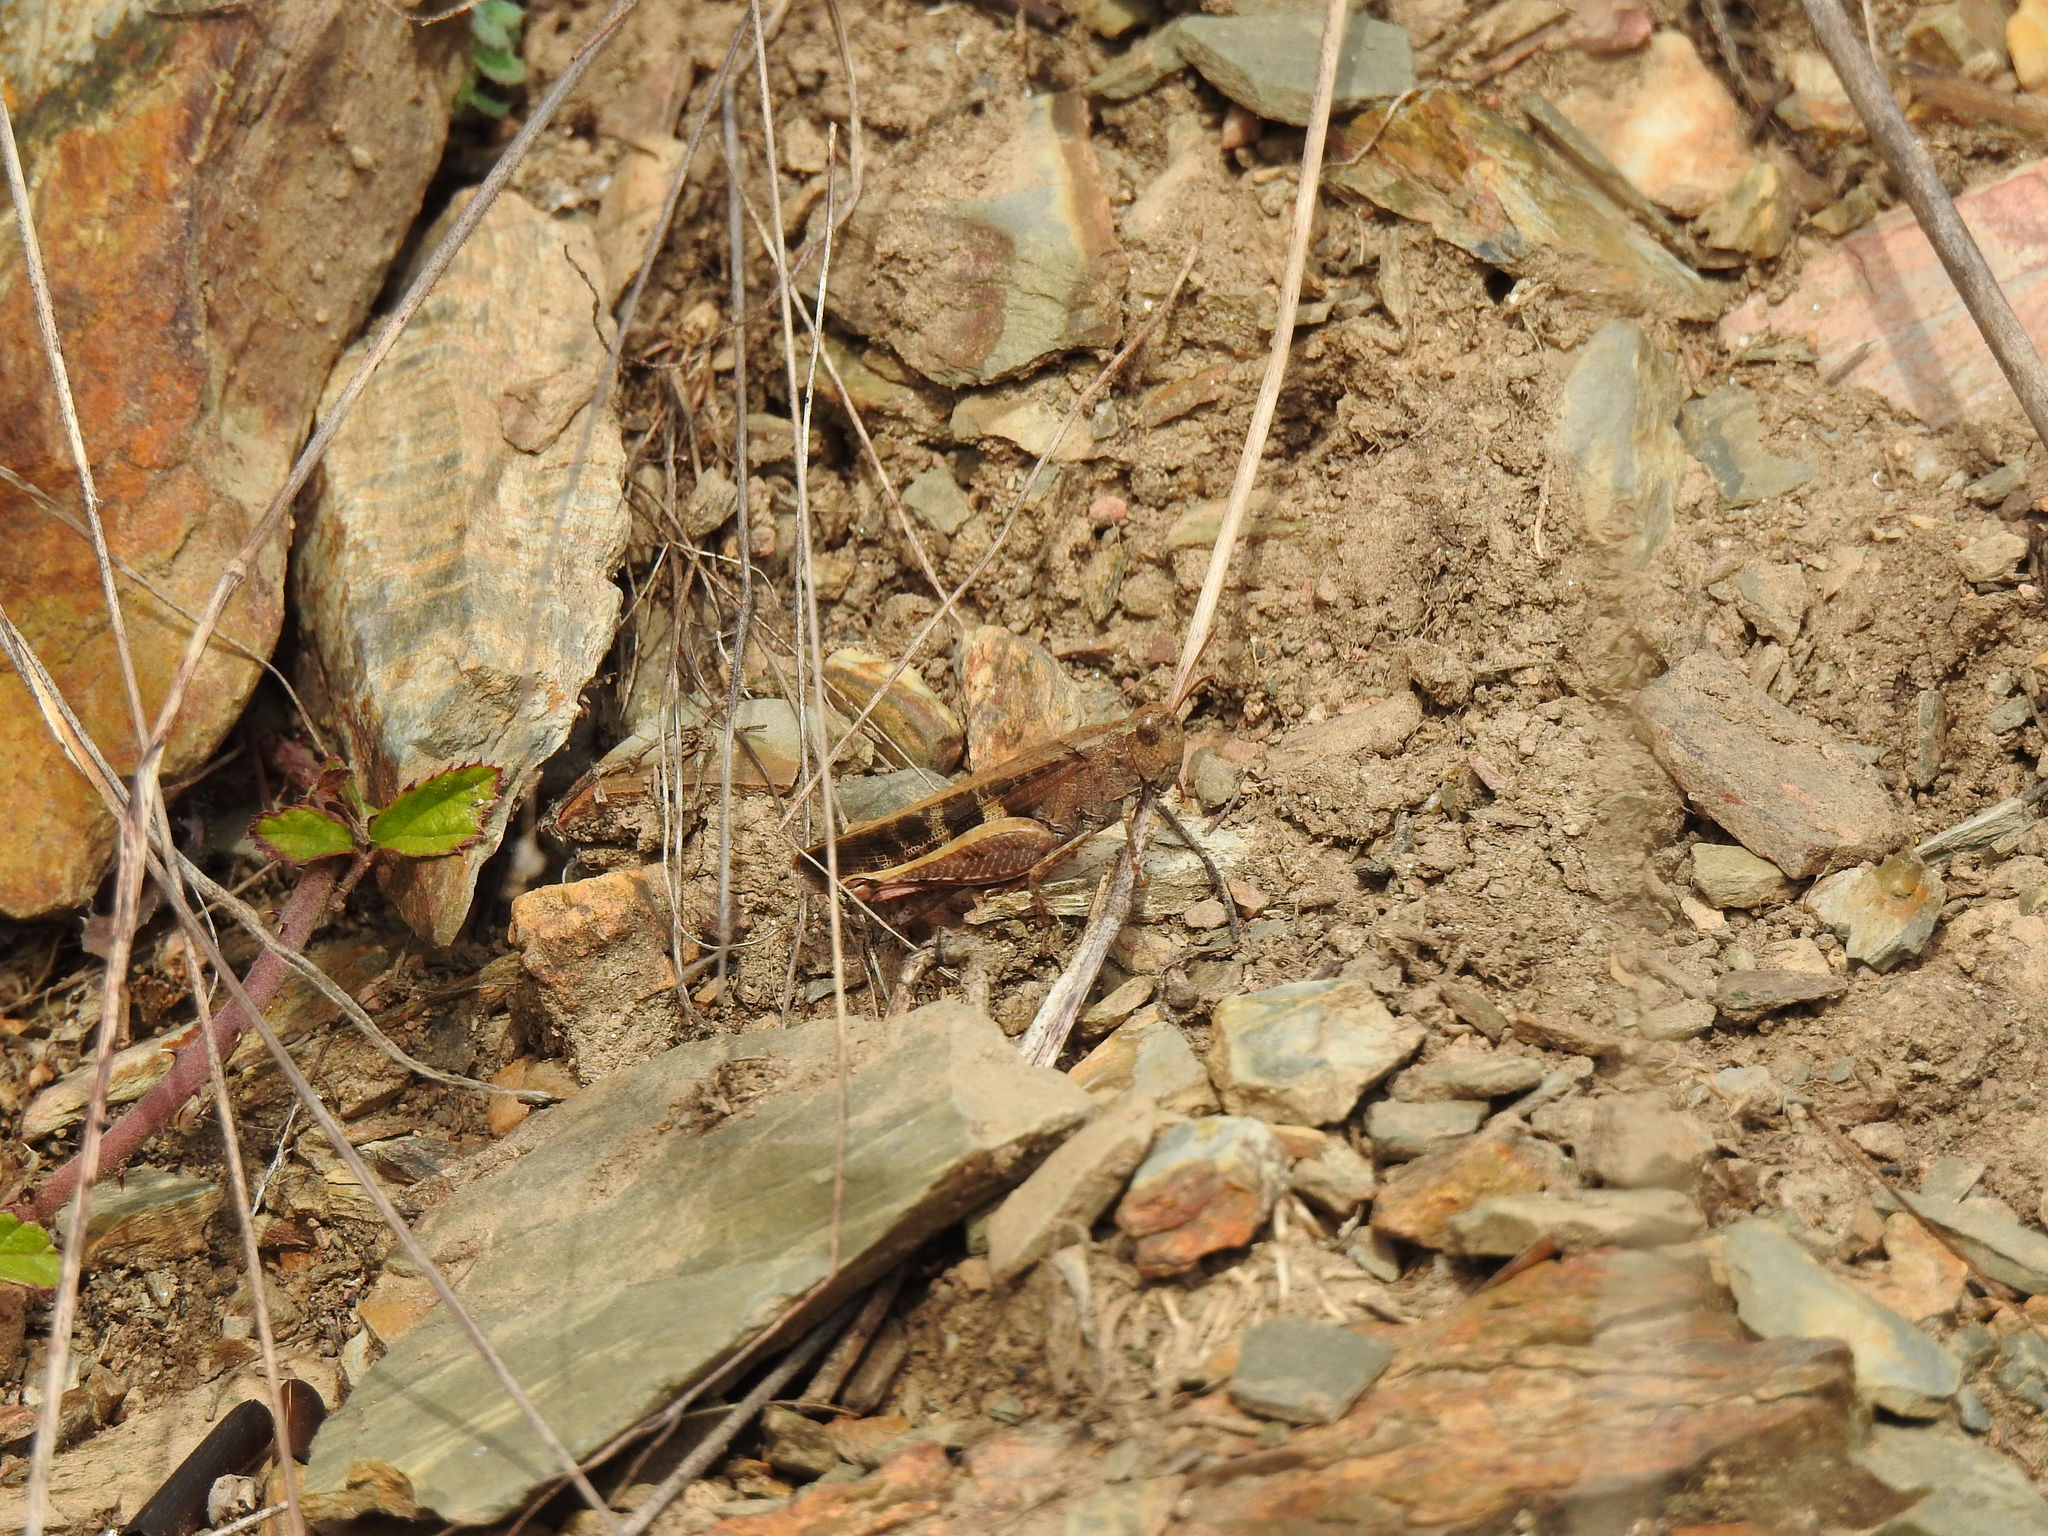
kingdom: Animalia
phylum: Arthropoda
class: Insecta
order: Orthoptera
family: Acrididae
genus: Aiolopus
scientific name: Aiolopus strepens
